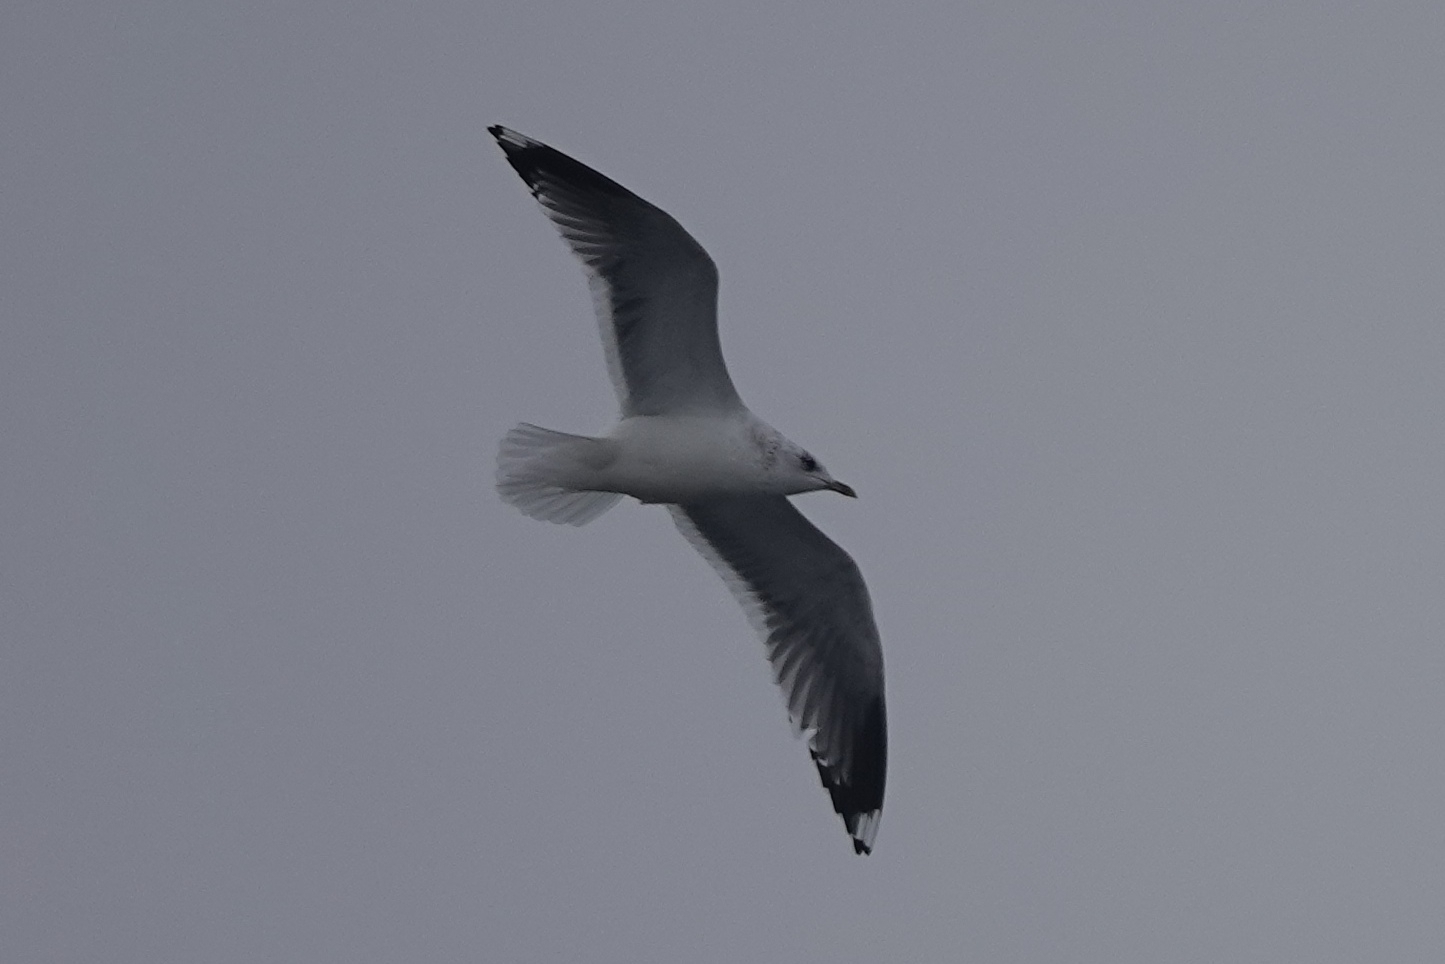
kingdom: Animalia
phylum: Chordata
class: Aves
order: Charadriiformes
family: Laridae
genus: Larus
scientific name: Larus canus
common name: Mew gull
